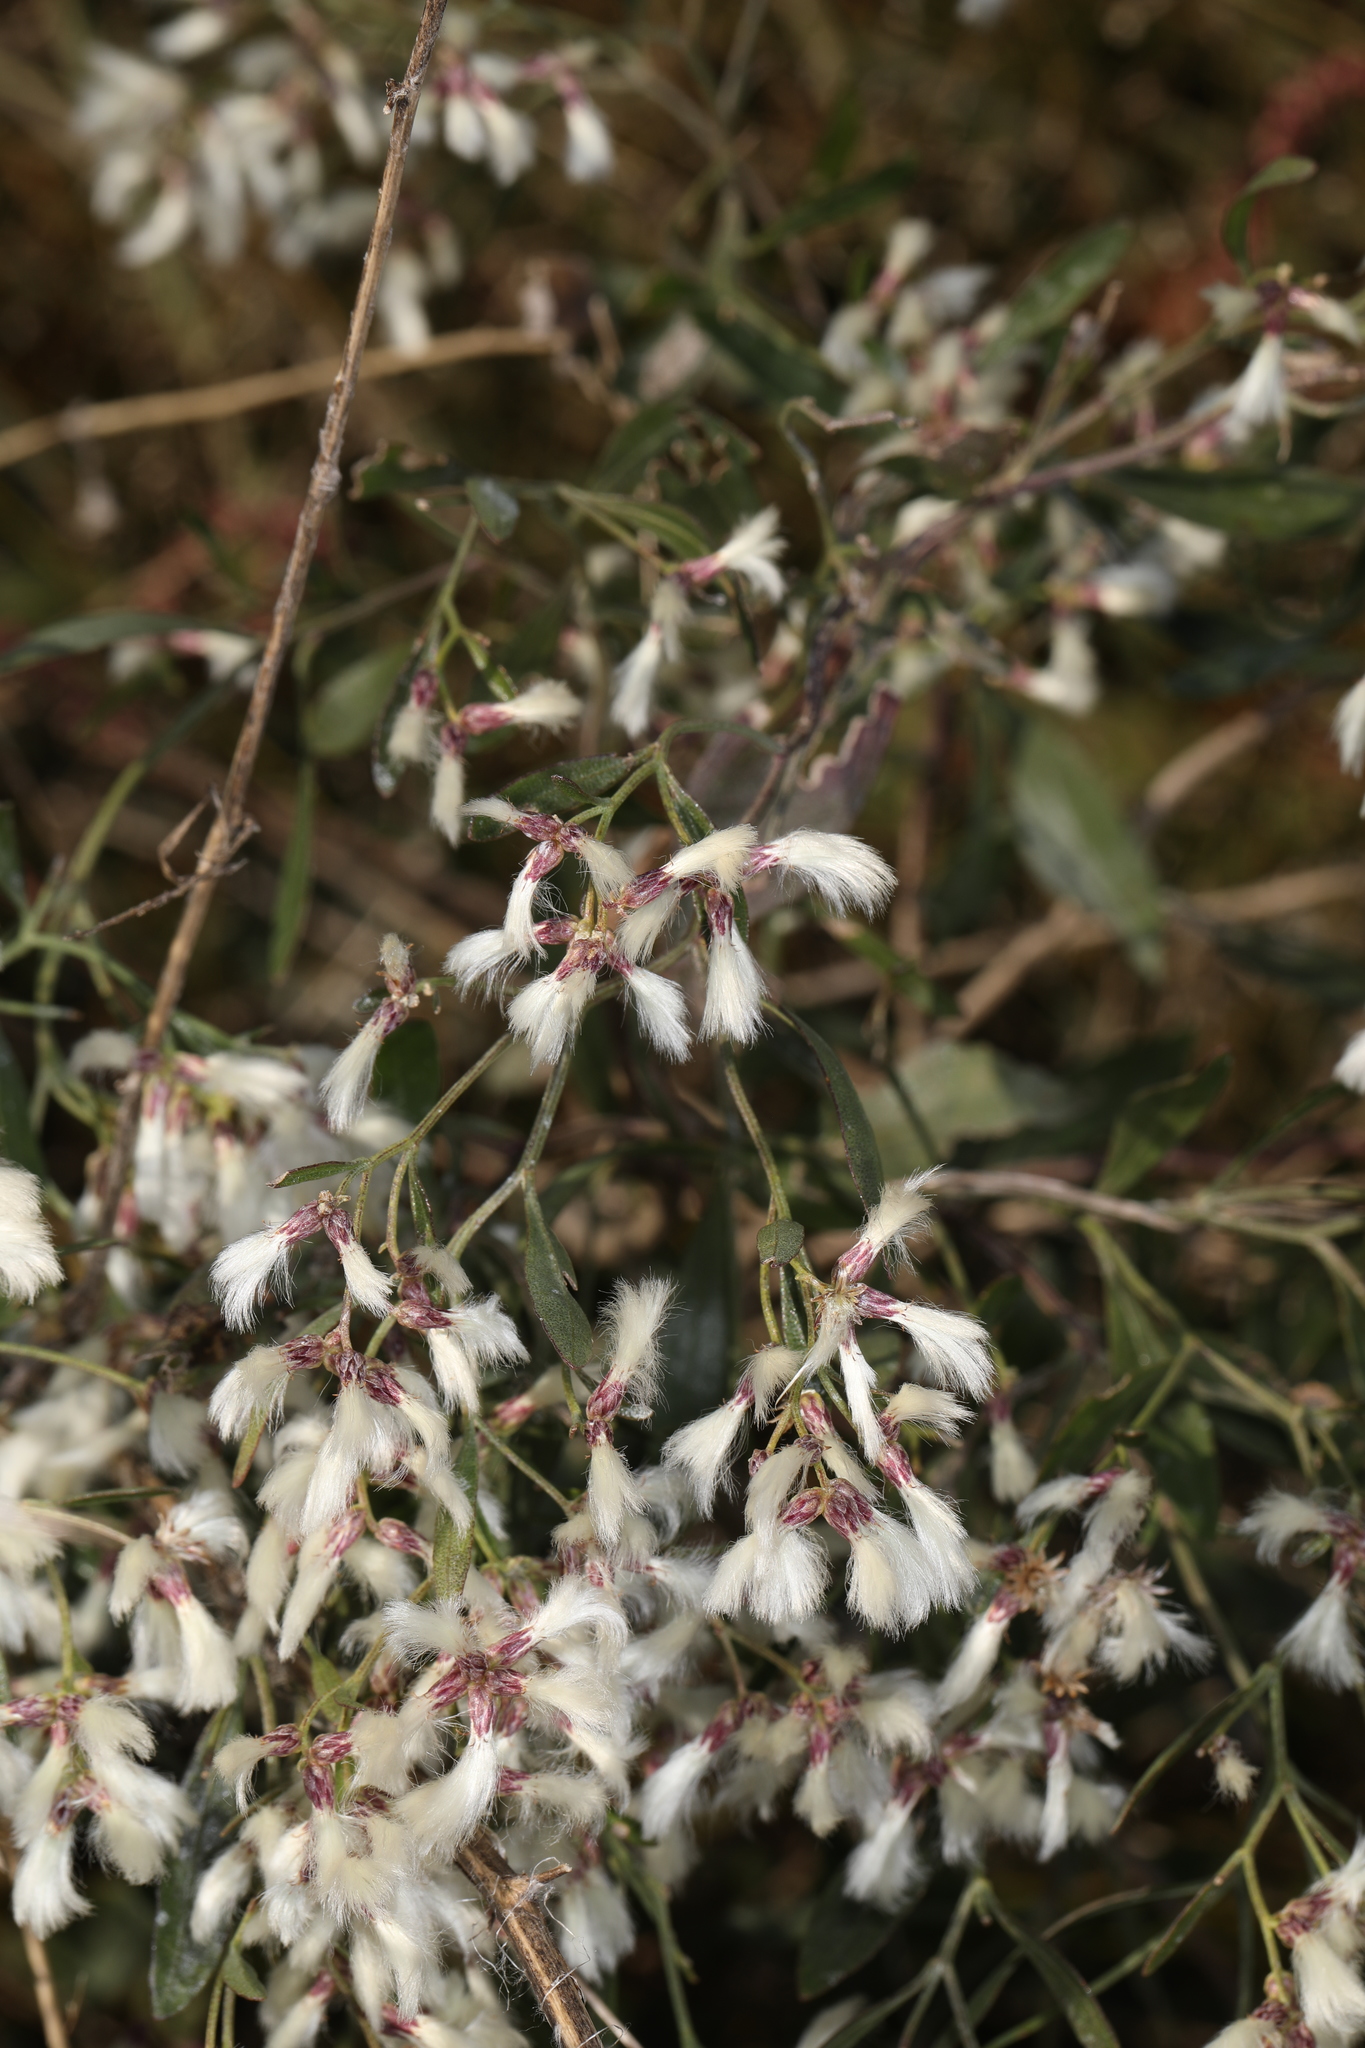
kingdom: Plantae
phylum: Tracheophyta
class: Magnoliopsida
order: Asterales
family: Asteraceae
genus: Baccharis
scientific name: Baccharis halimifolia
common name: Eastern baccharis
